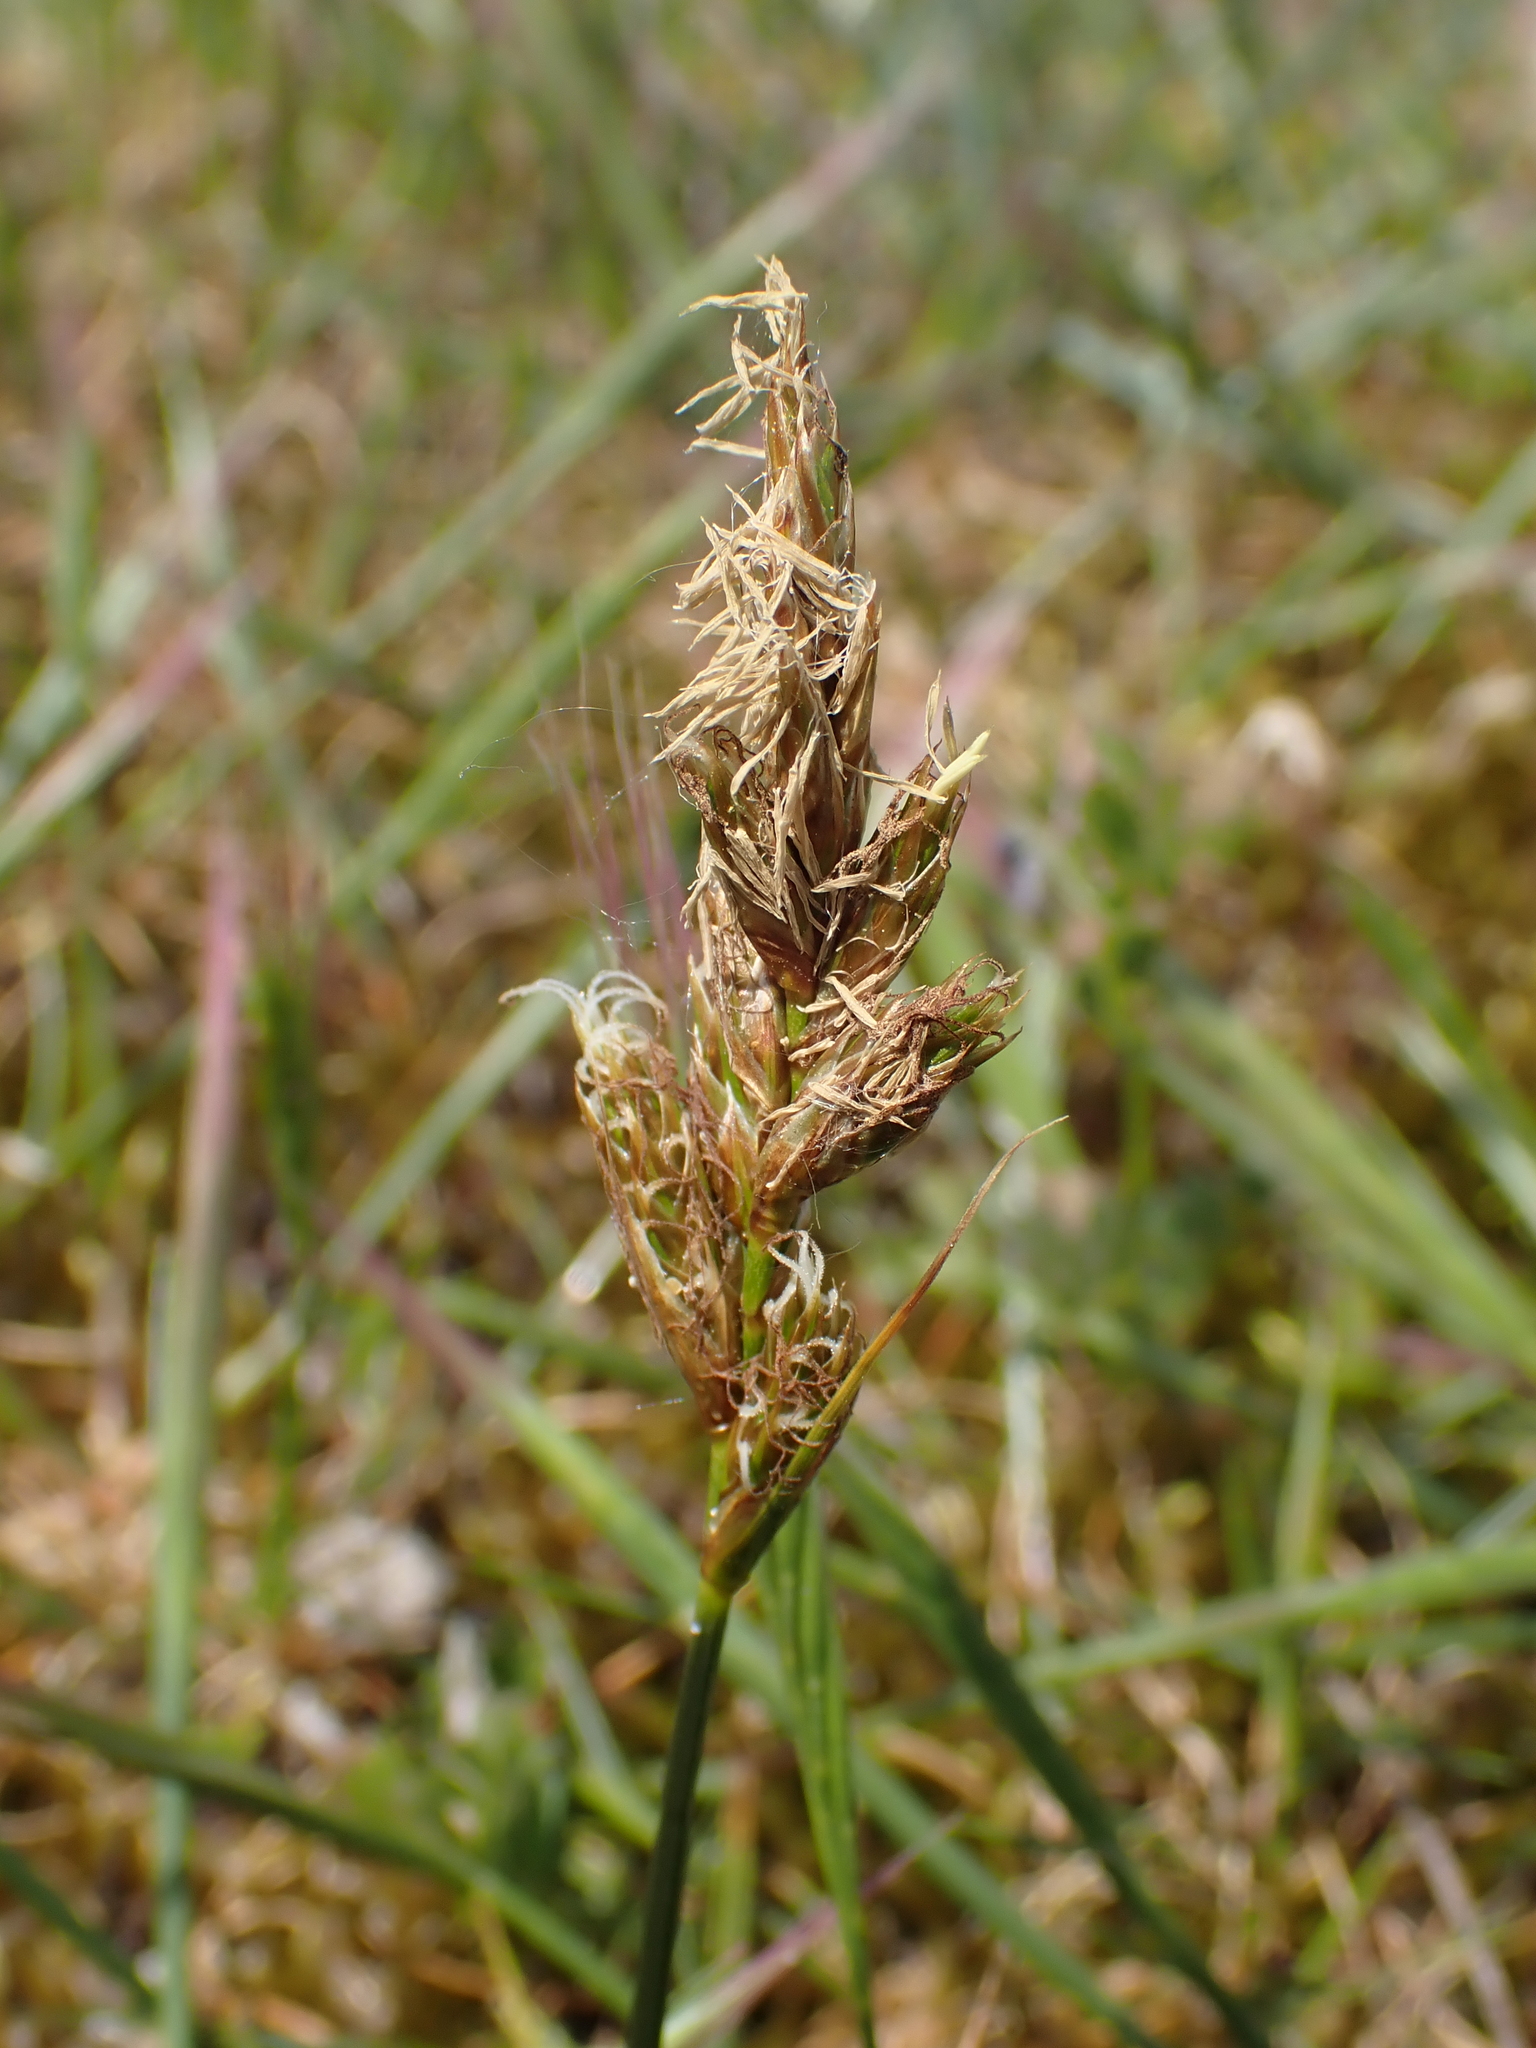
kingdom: Plantae
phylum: Tracheophyta
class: Liliopsida
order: Poales
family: Cyperaceae
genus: Carex
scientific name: Carex arenaria
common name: Sand sedge
